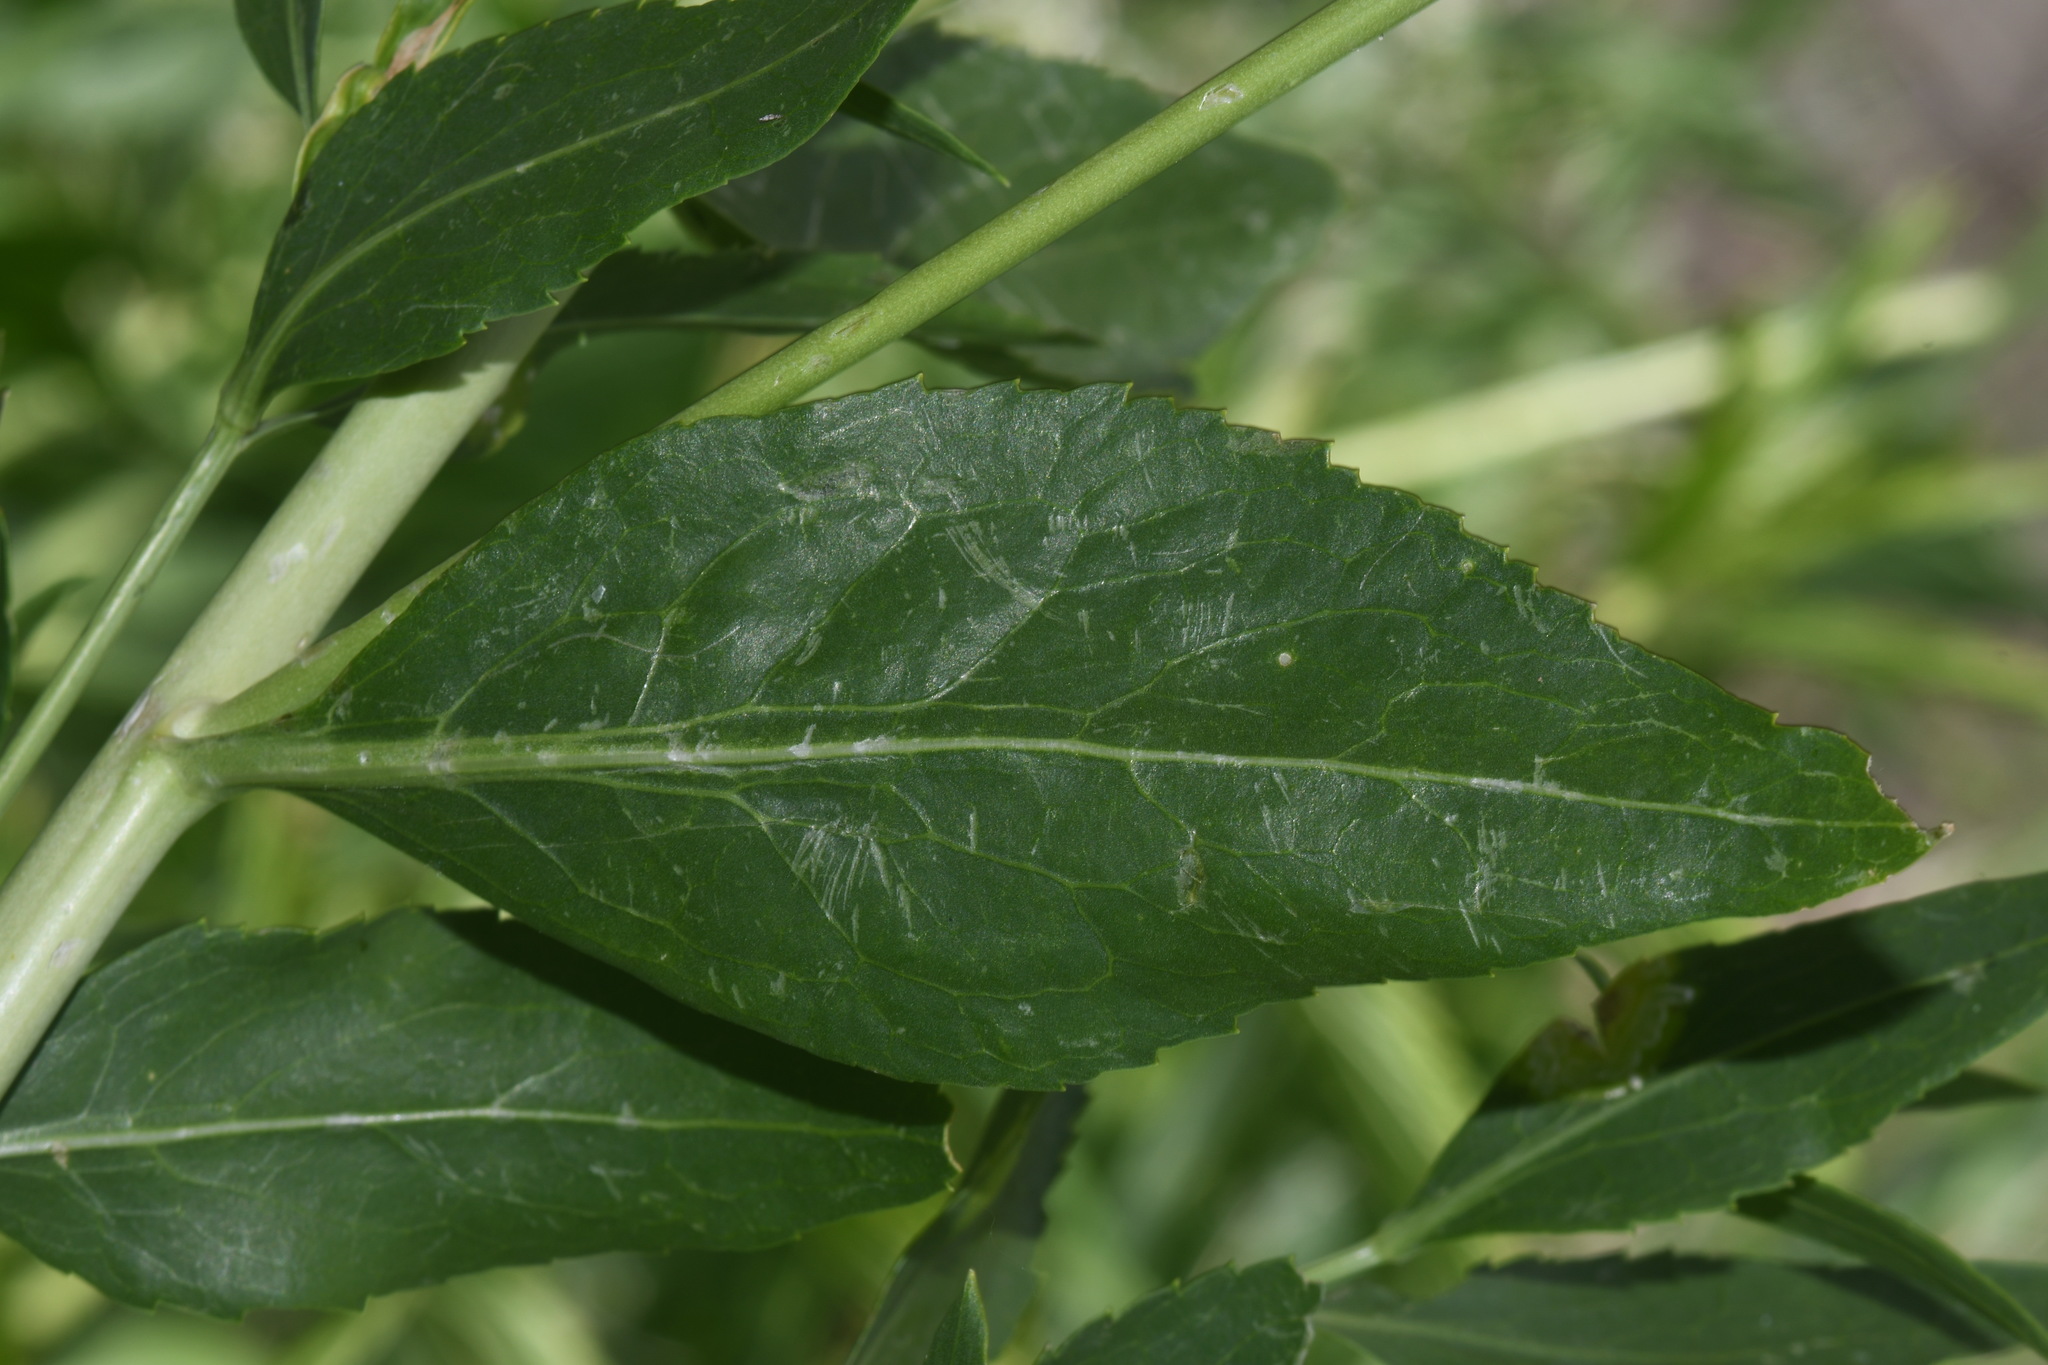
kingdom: Plantae
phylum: Tracheophyta
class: Magnoliopsida
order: Brassicales
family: Brassicaceae
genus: Lepidium
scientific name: Lepidium latifolium
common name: Dittander
